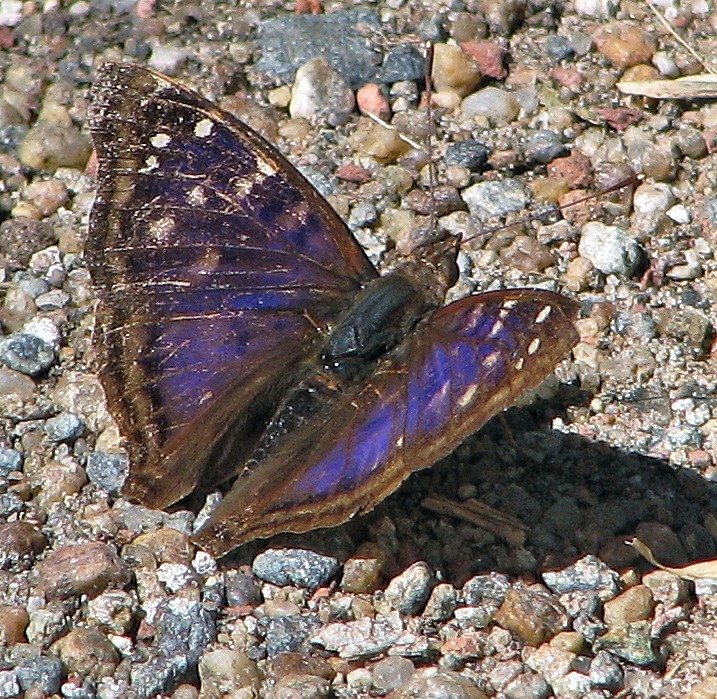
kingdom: Animalia
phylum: Arthropoda
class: Insecta
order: Lepidoptera
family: Nymphalidae
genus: Doxocopa
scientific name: Doxocopa kallina
